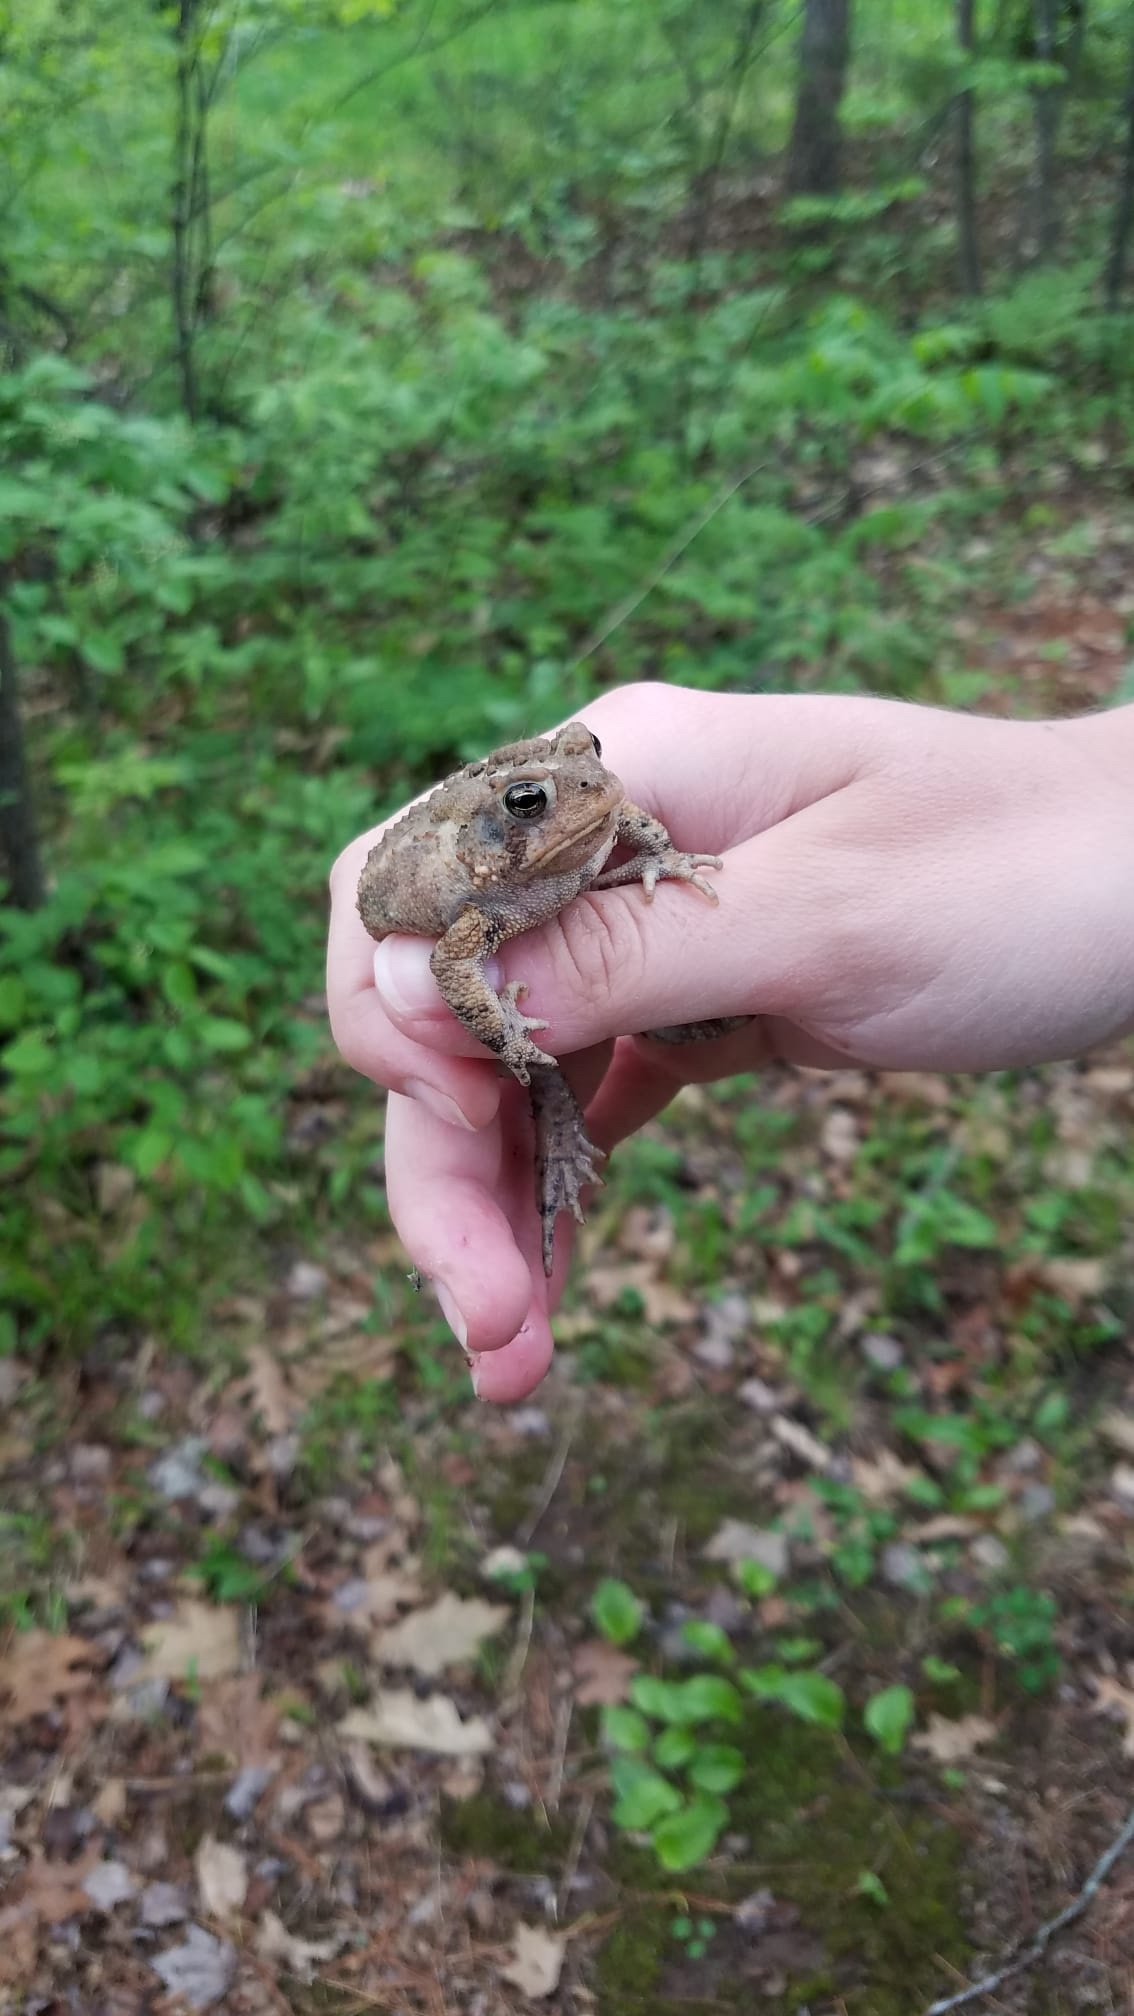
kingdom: Animalia
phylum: Chordata
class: Amphibia
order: Anura
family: Bufonidae
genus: Anaxyrus
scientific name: Anaxyrus americanus
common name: American toad
